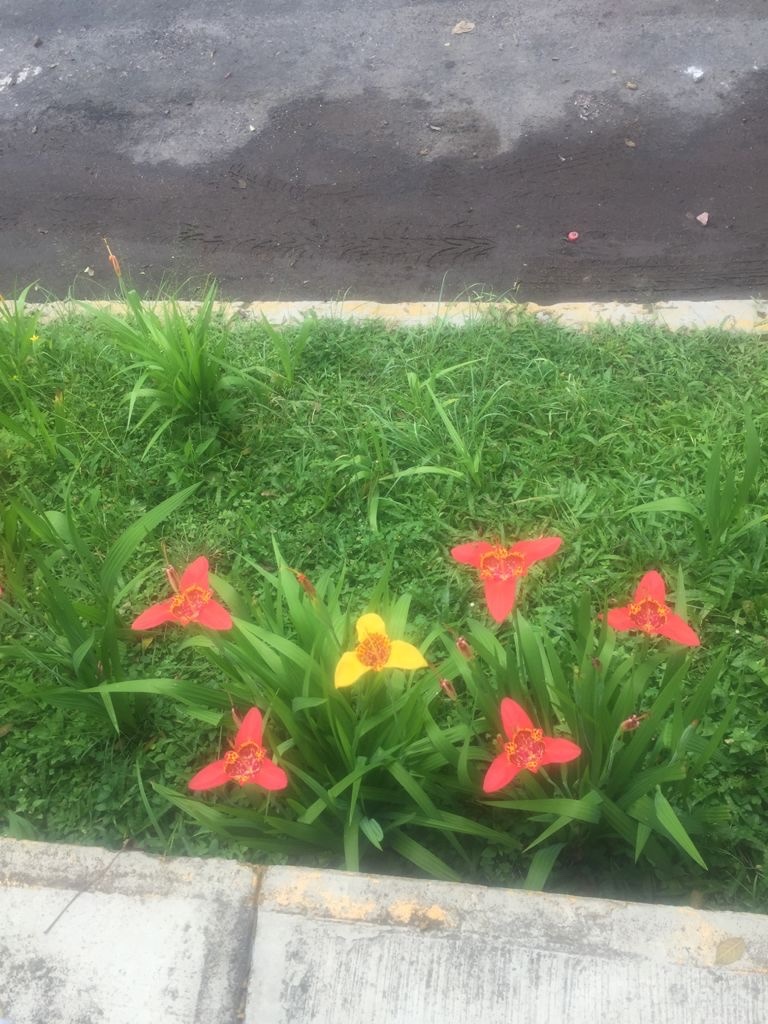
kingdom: Plantae
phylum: Tracheophyta
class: Liliopsida
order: Asparagales
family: Iridaceae
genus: Tigridia
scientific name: Tigridia pavonia
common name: Peacock-flower
